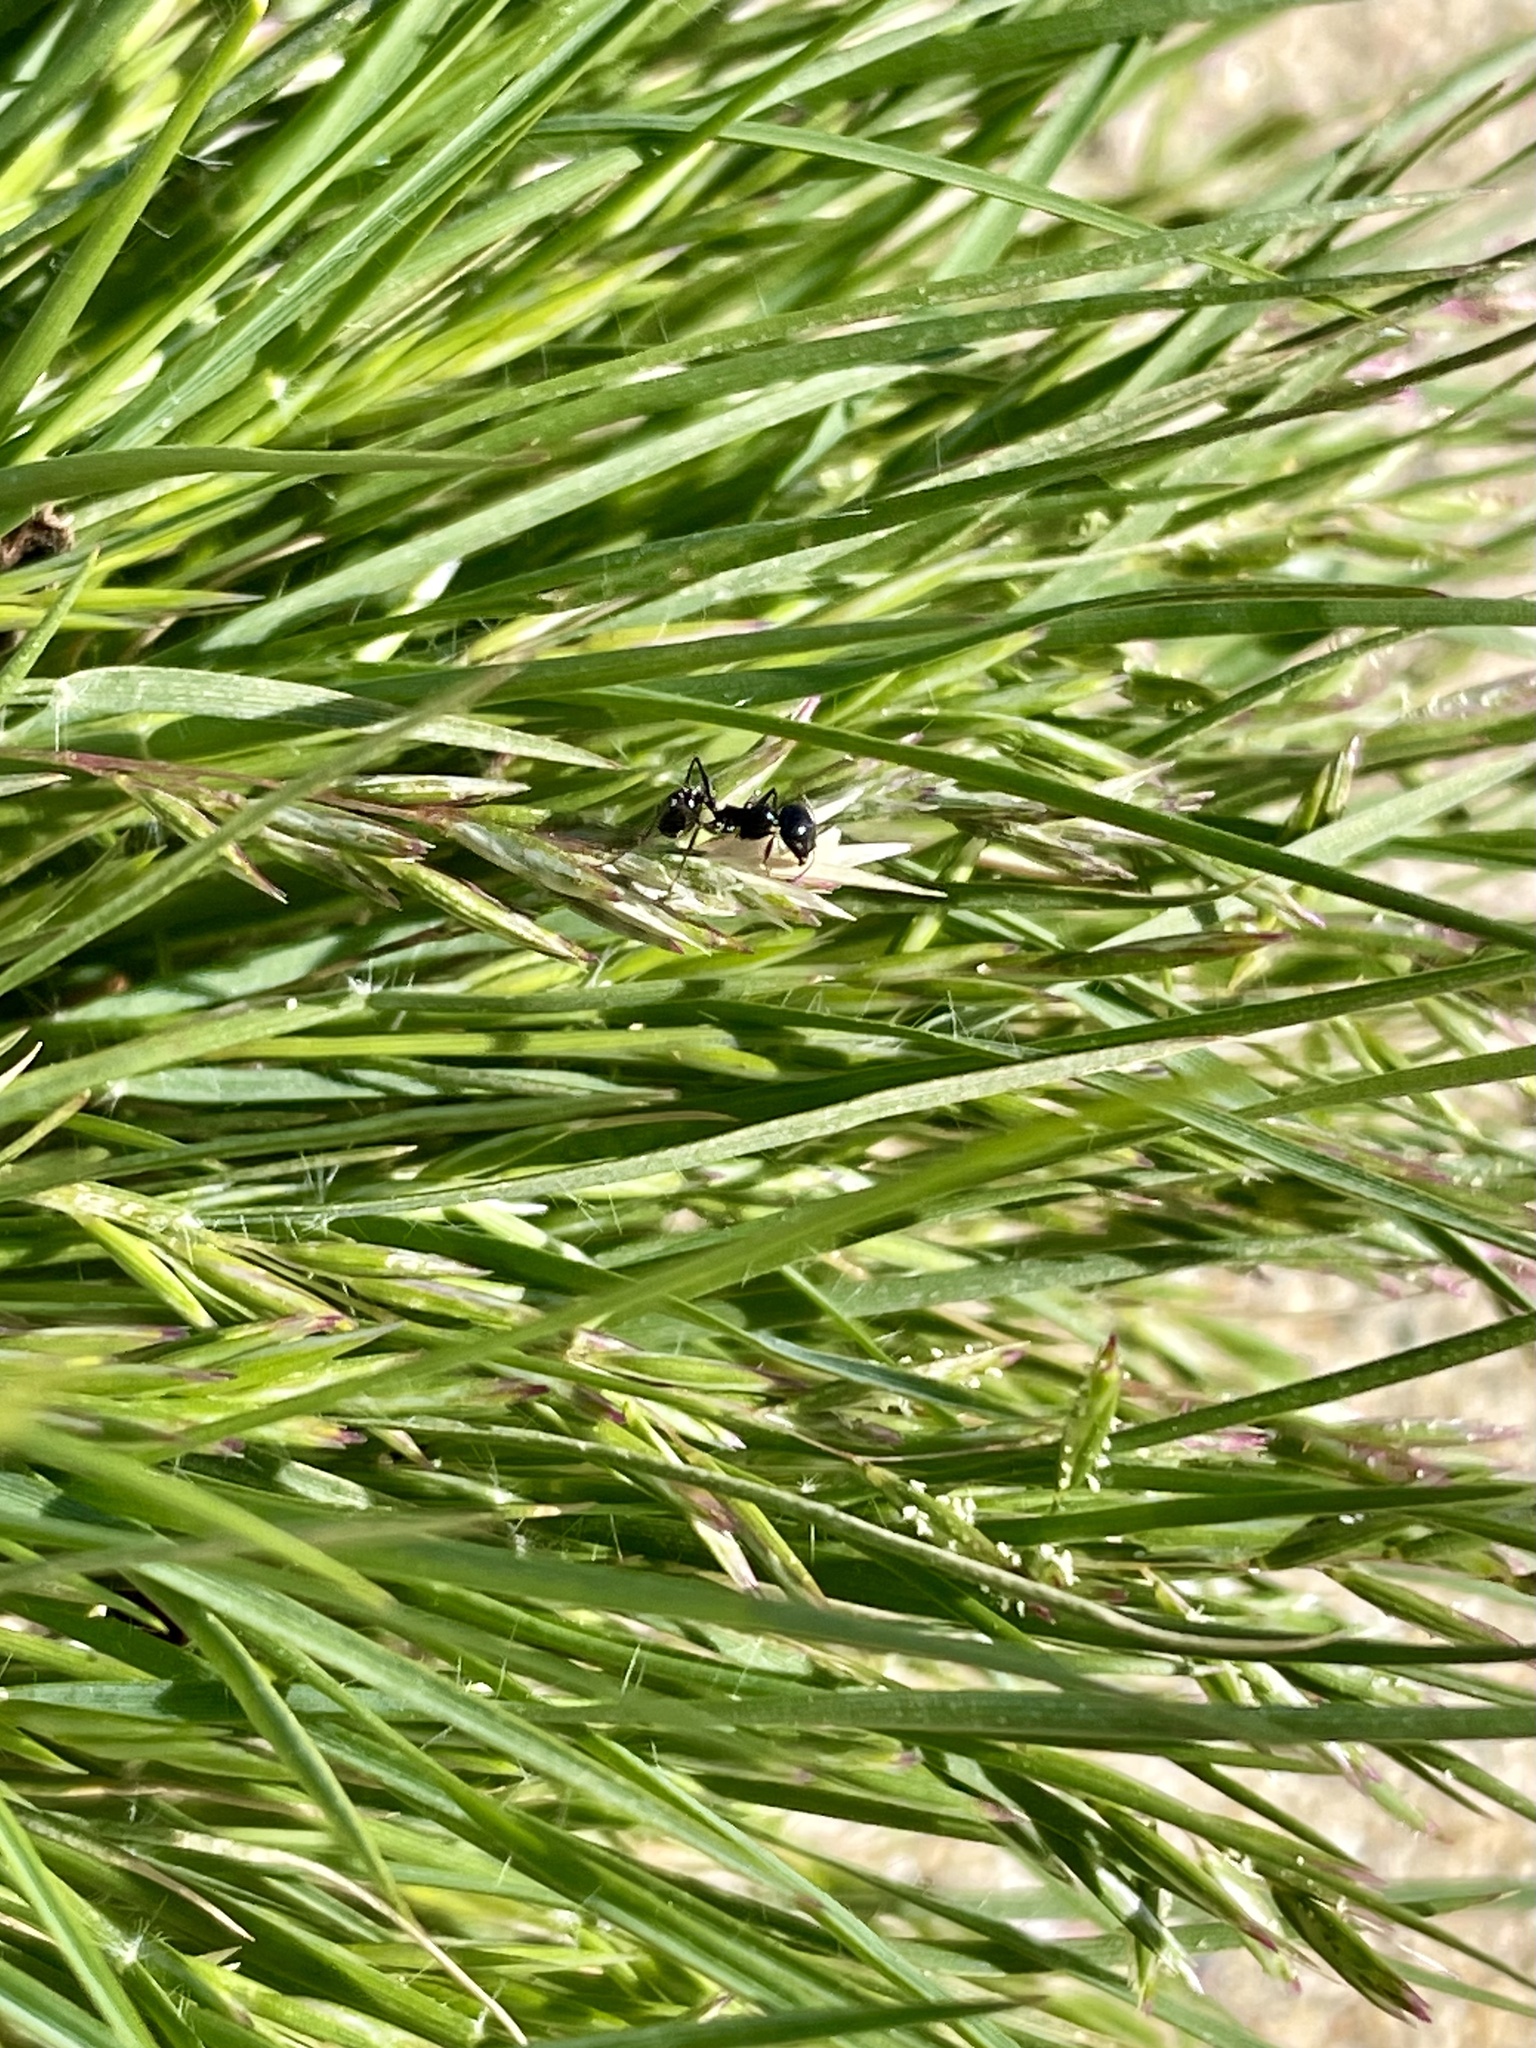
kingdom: Animalia
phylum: Arthropoda
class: Insecta
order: Hymenoptera
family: Formicidae
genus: Messor
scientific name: Messor pergandei
